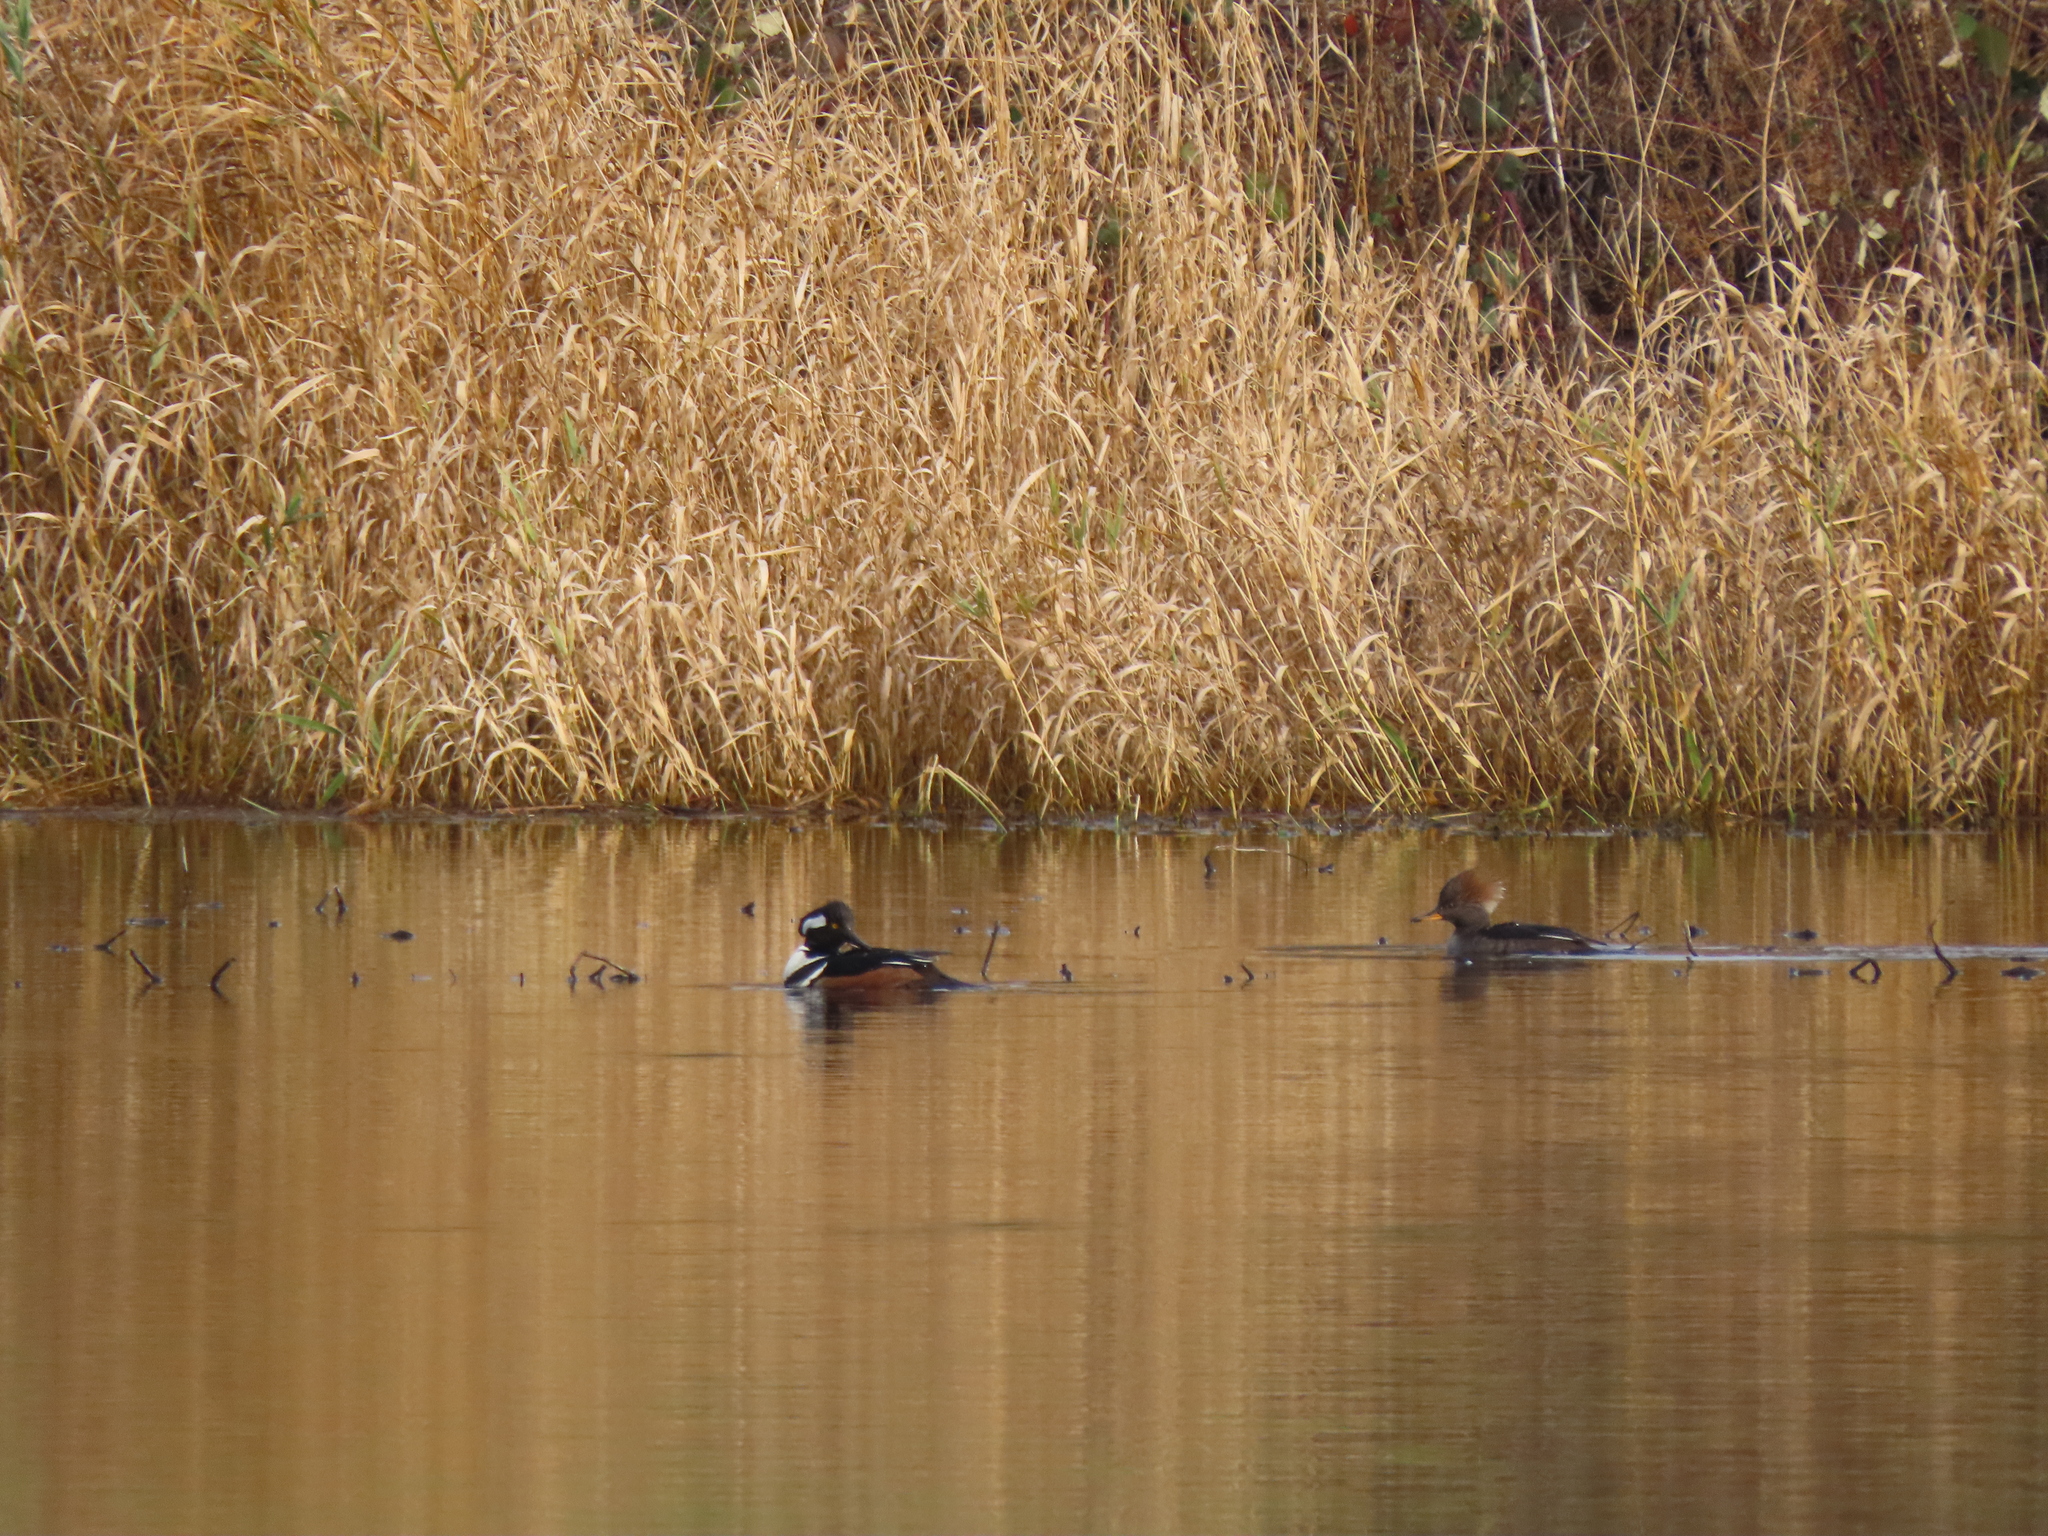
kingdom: Animalia
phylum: Chordata
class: Aves
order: Anseriformes
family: Anatidae
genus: Lophodytes
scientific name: Lophodytes cucullatus
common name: Hooded merganser
